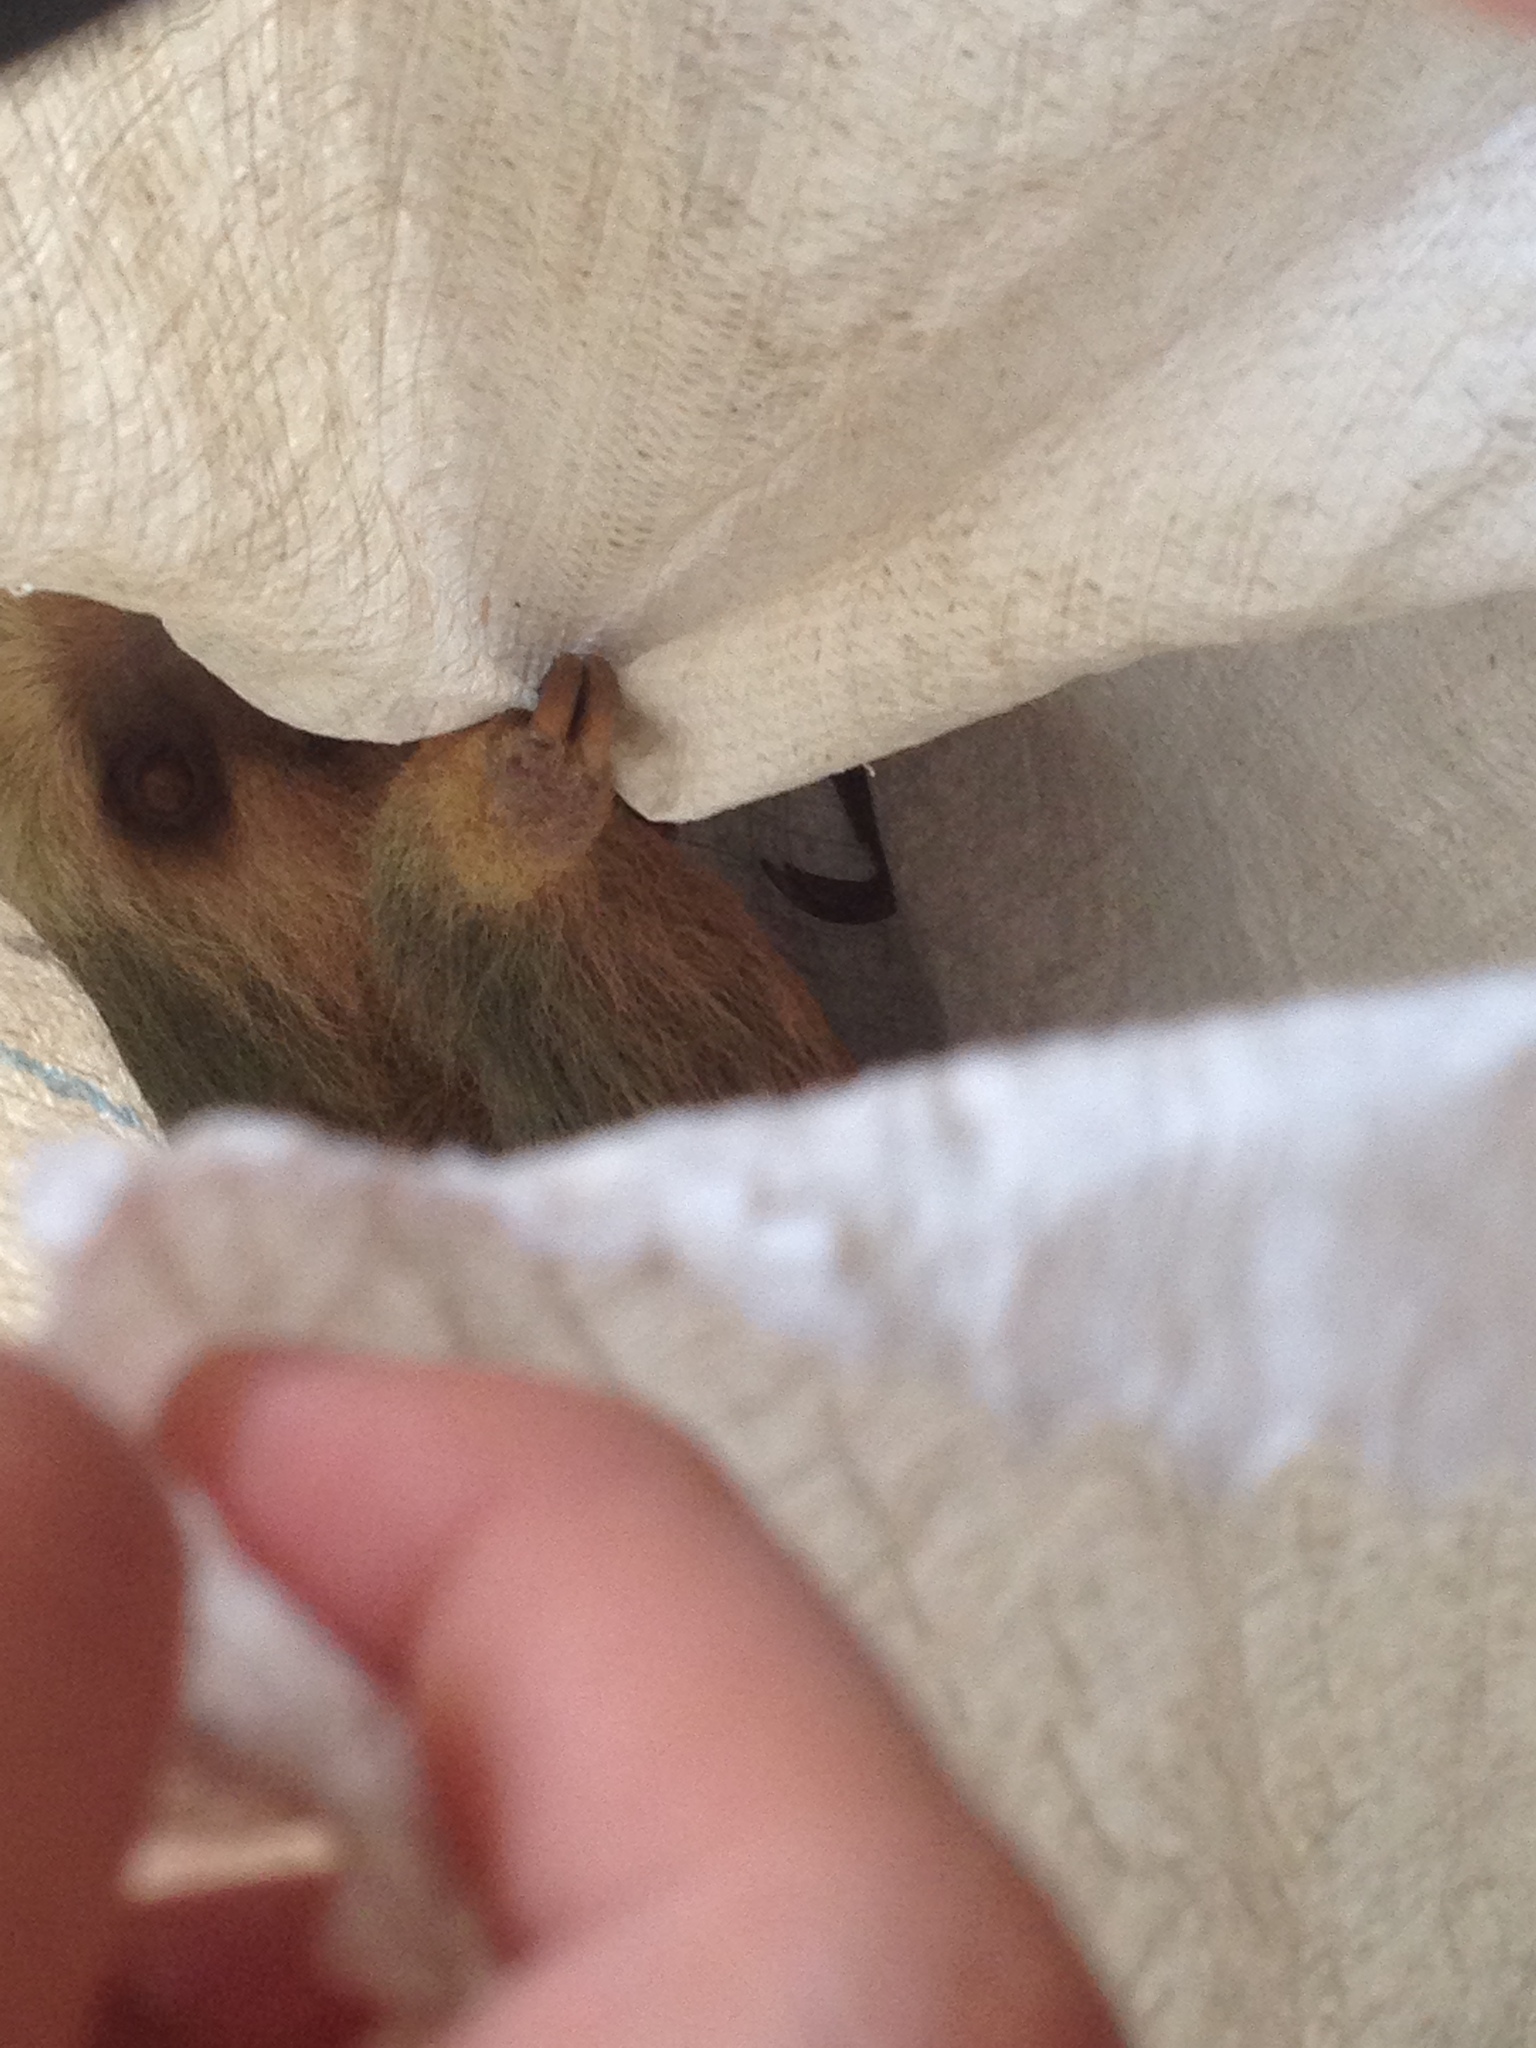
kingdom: Animalia
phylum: Chordata
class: Mammalia
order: Pilosa
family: Megalonychidae
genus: Choloepus
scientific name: Choloepus hoffmanni
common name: Hoffmann's two-toed sloth
